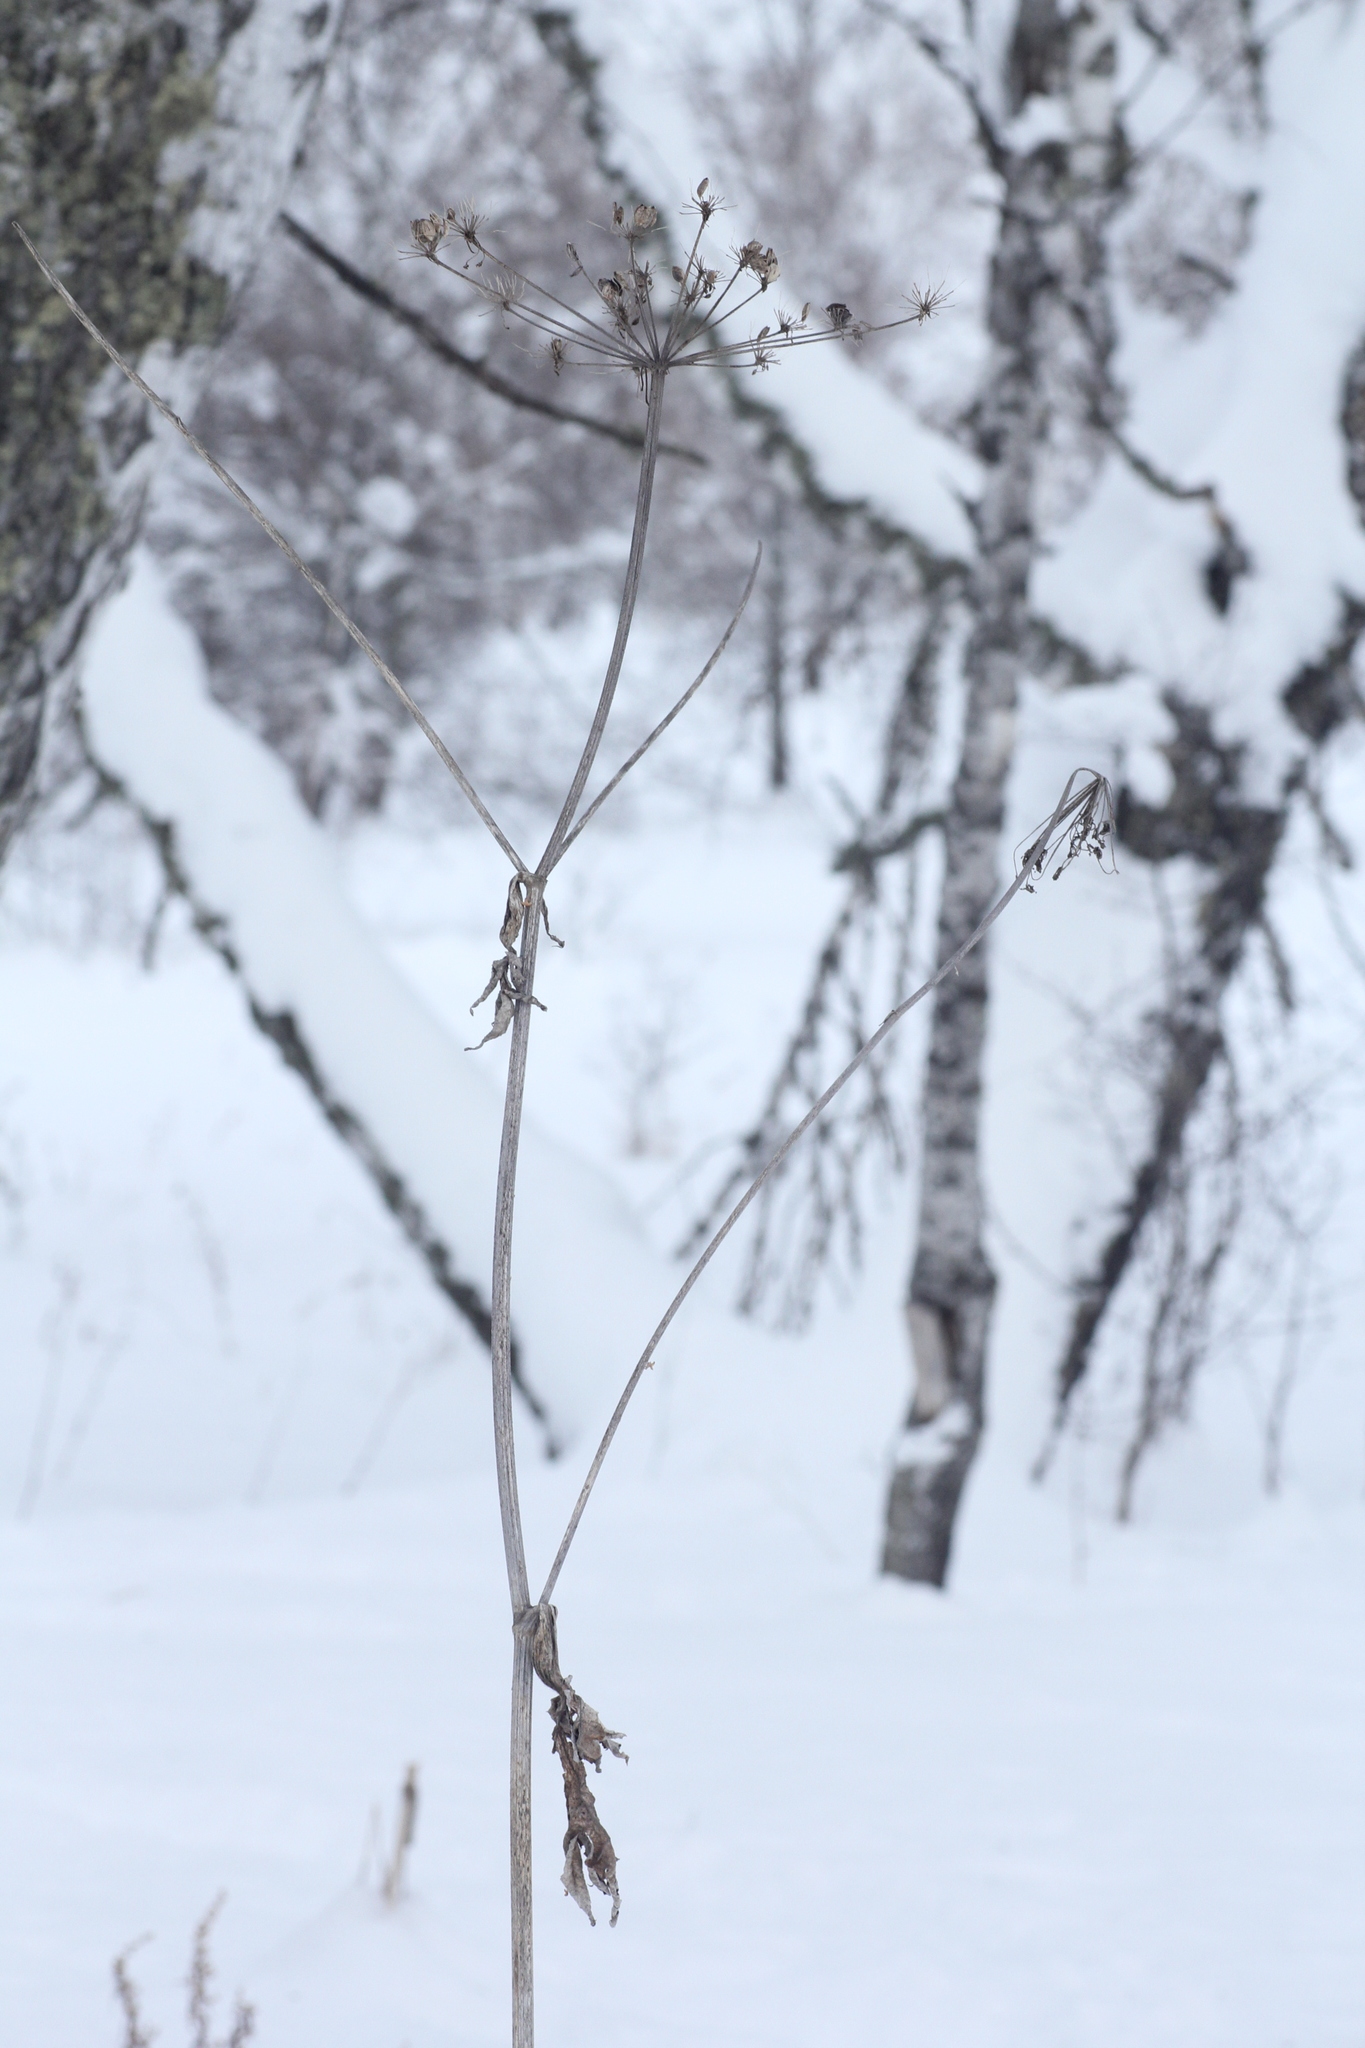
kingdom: Plantae
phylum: Tracheophyta
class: Magnoliopsida
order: Apiales
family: Apiaceae
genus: Angelica
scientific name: Angelica sylvestris
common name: Wild angelica
